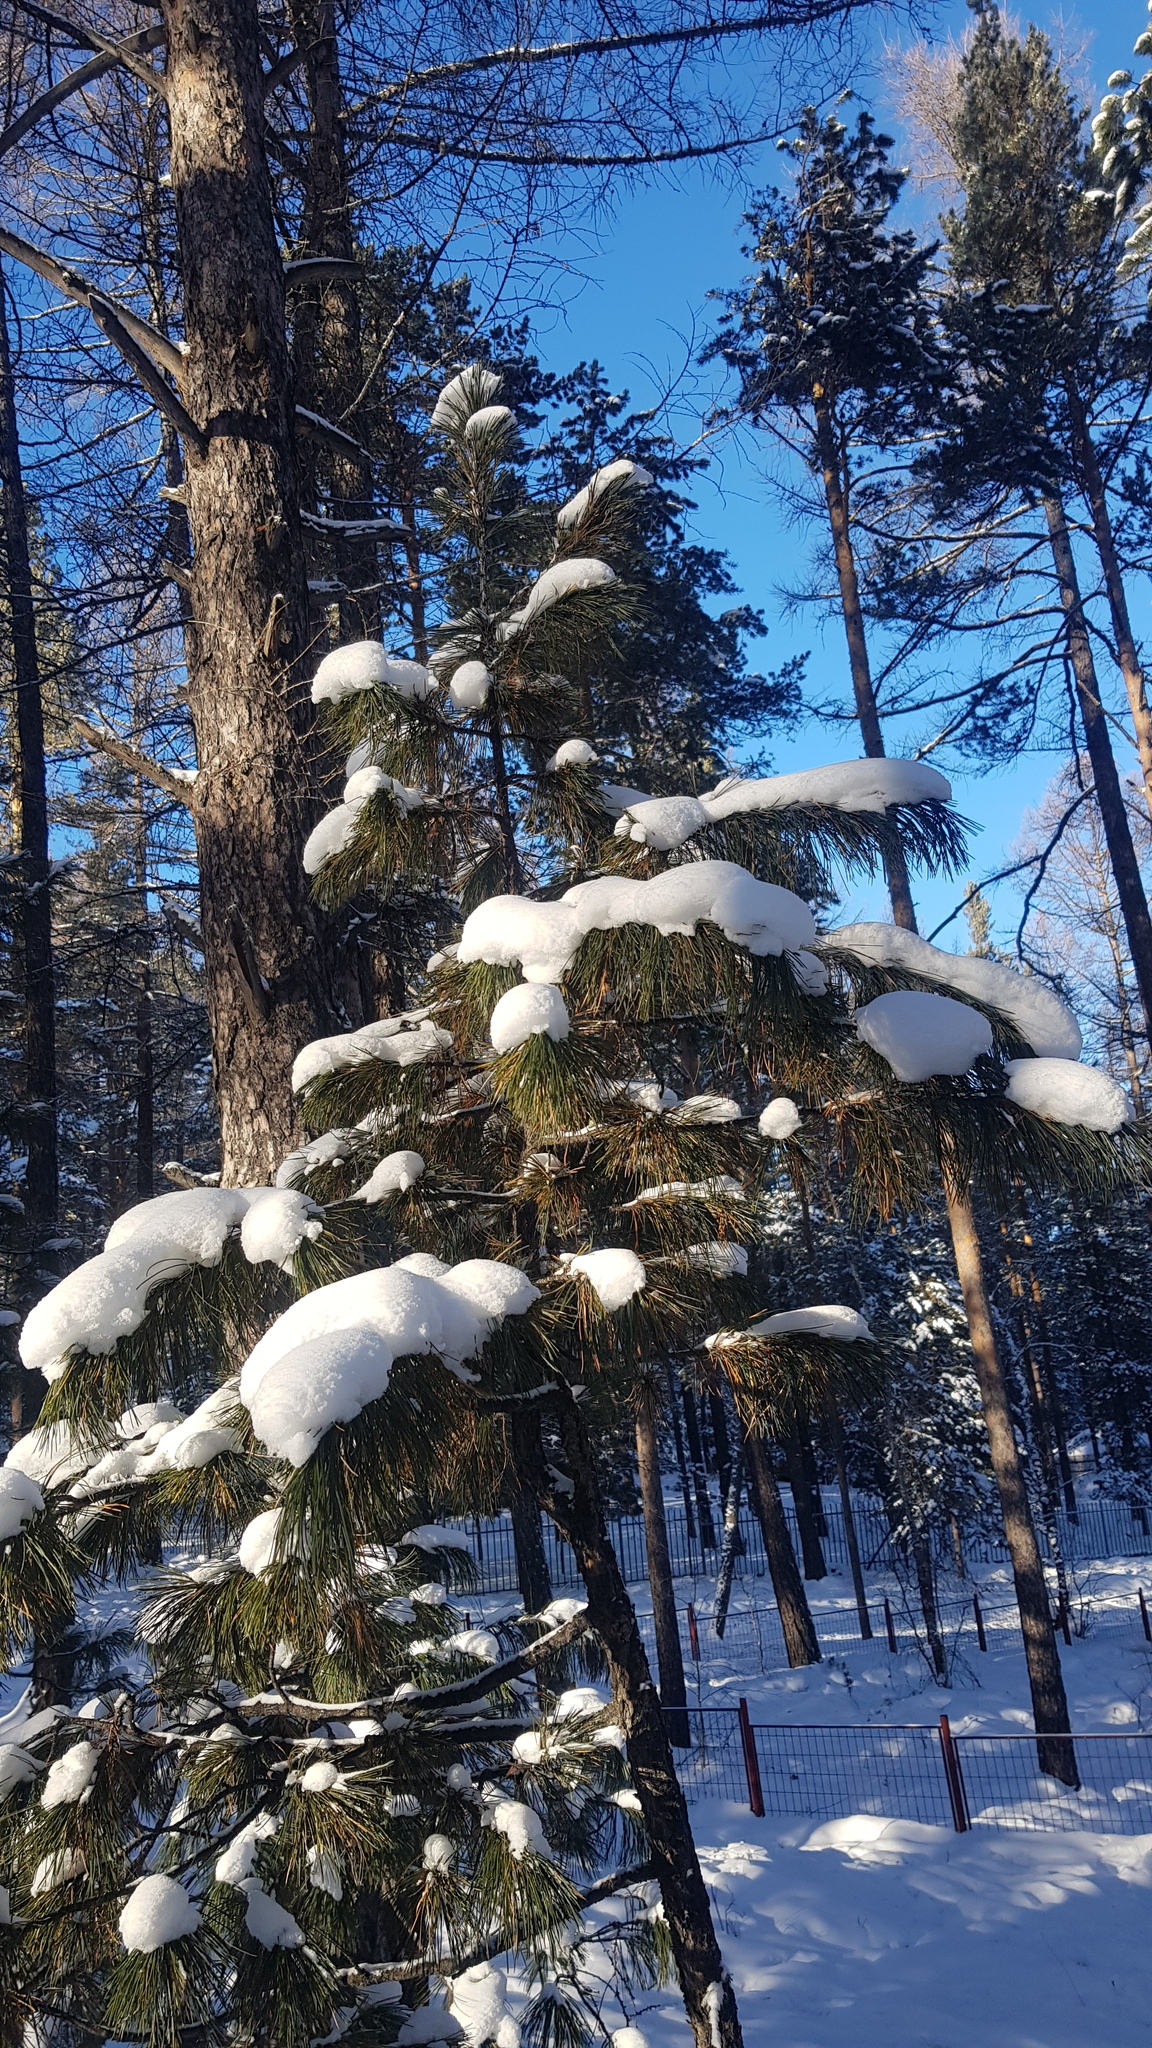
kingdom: Plantae
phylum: Tracheophyta
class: Pinopsida
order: Pinales
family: Pinaceae
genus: Pinus
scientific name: Pinus sibirica
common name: Siberian pine
